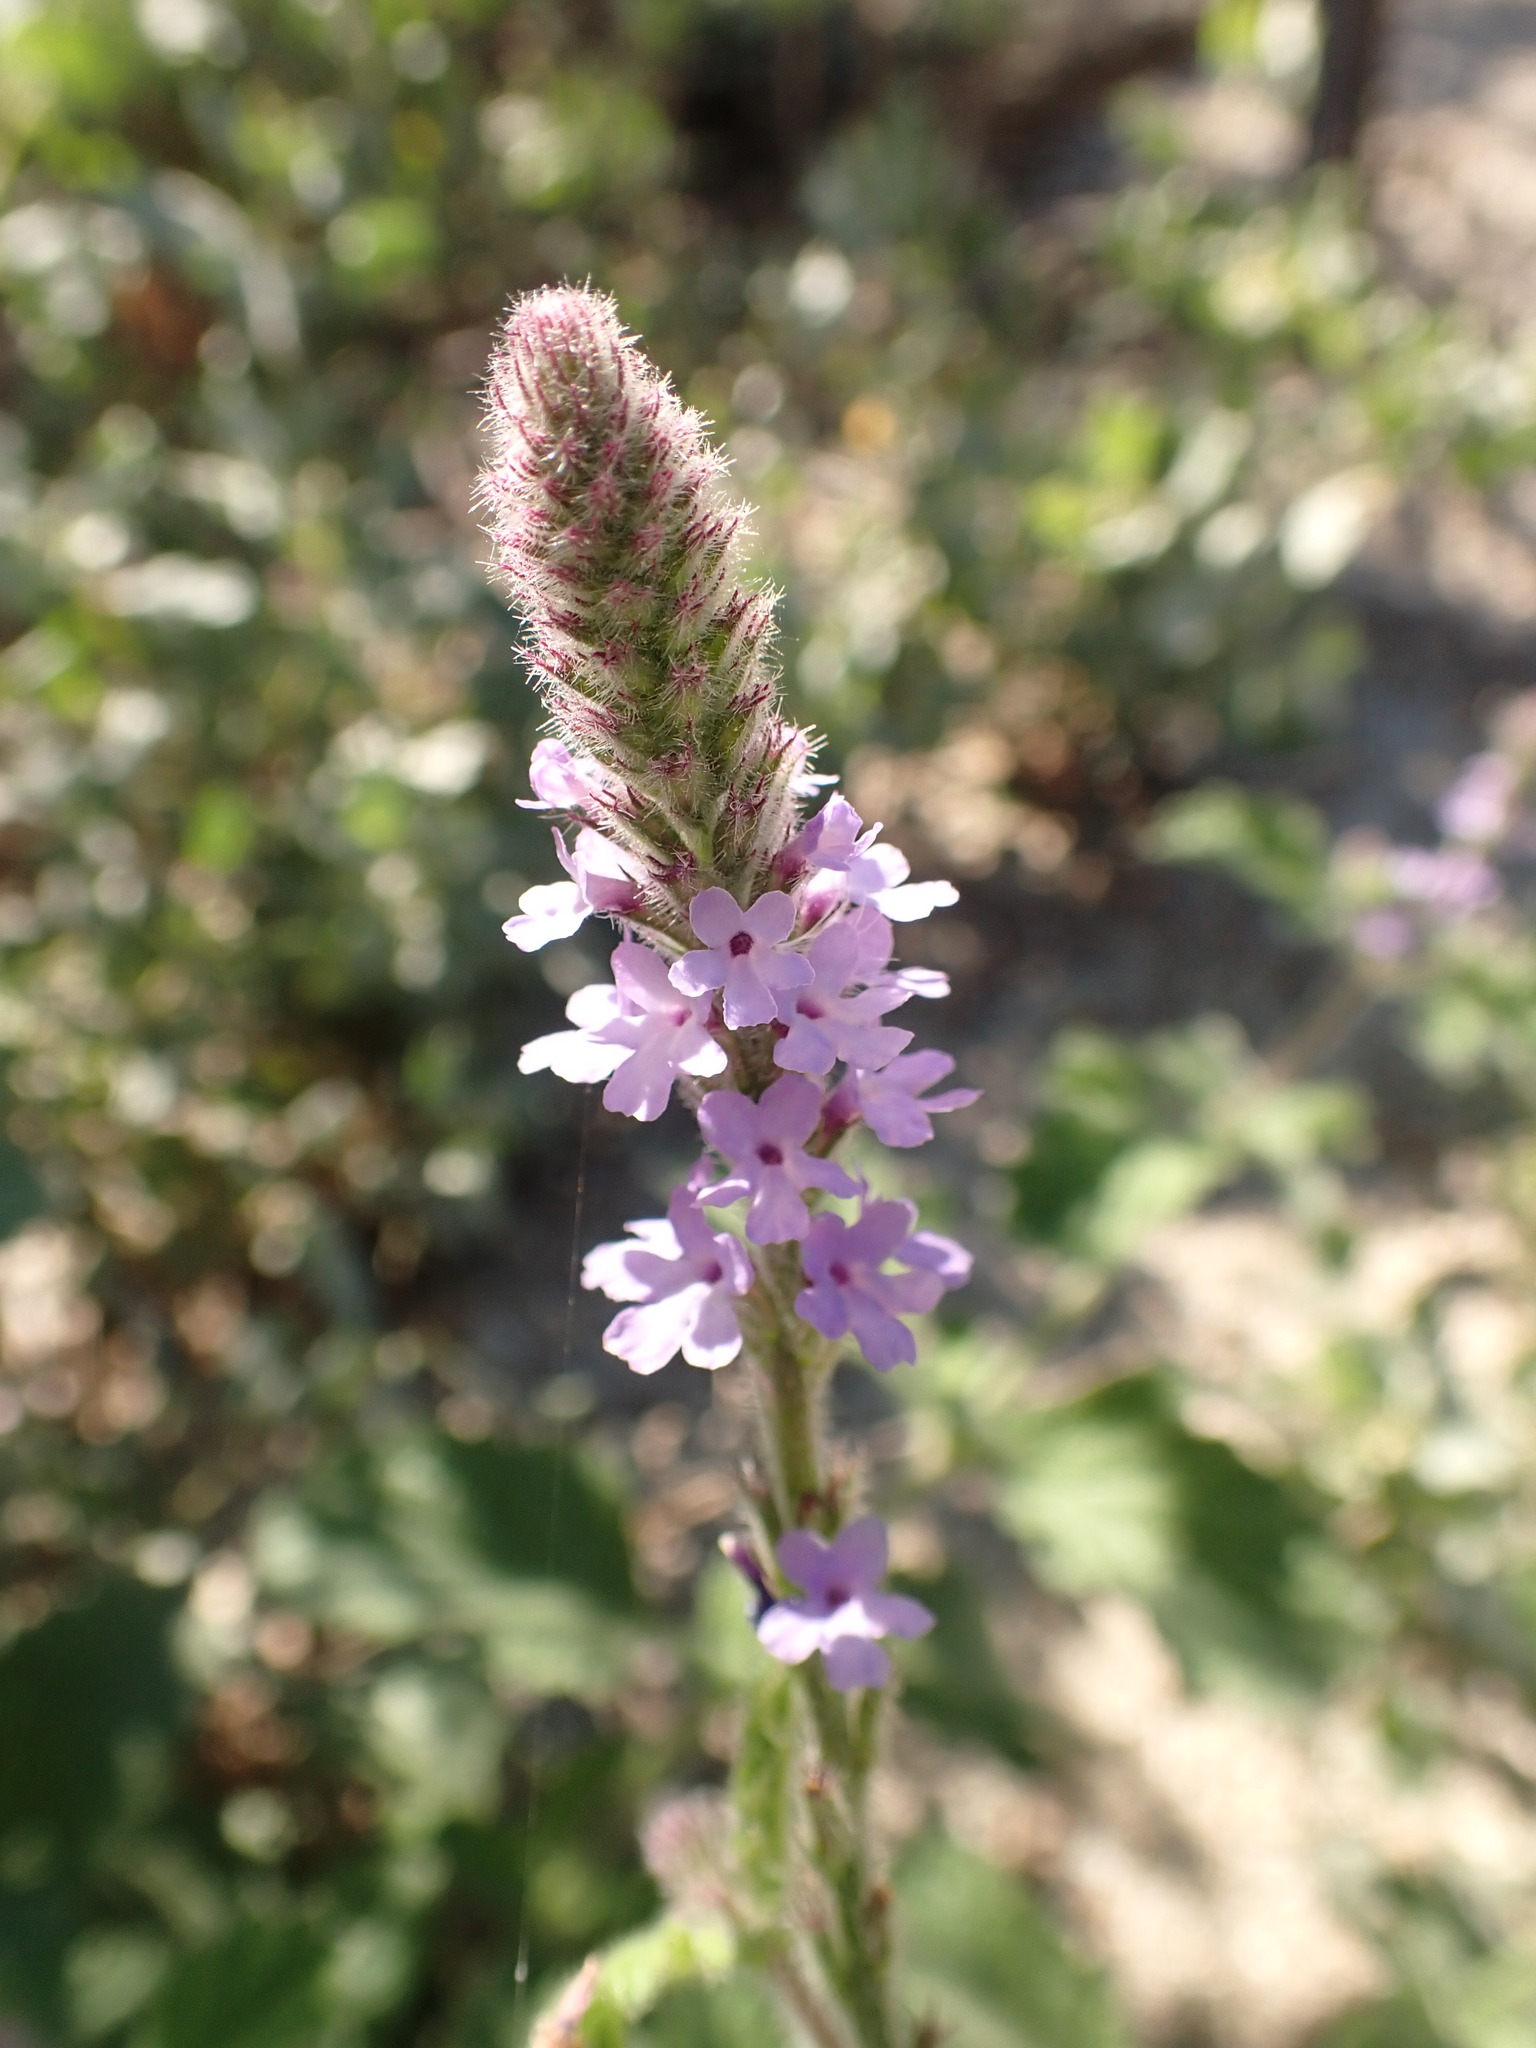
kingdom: Plantae
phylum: Tracheophyta
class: Magnoliopsida
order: Lamiales
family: Verbenaceae
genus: Verbena
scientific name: Verbena lasiostachys
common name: Vervain
